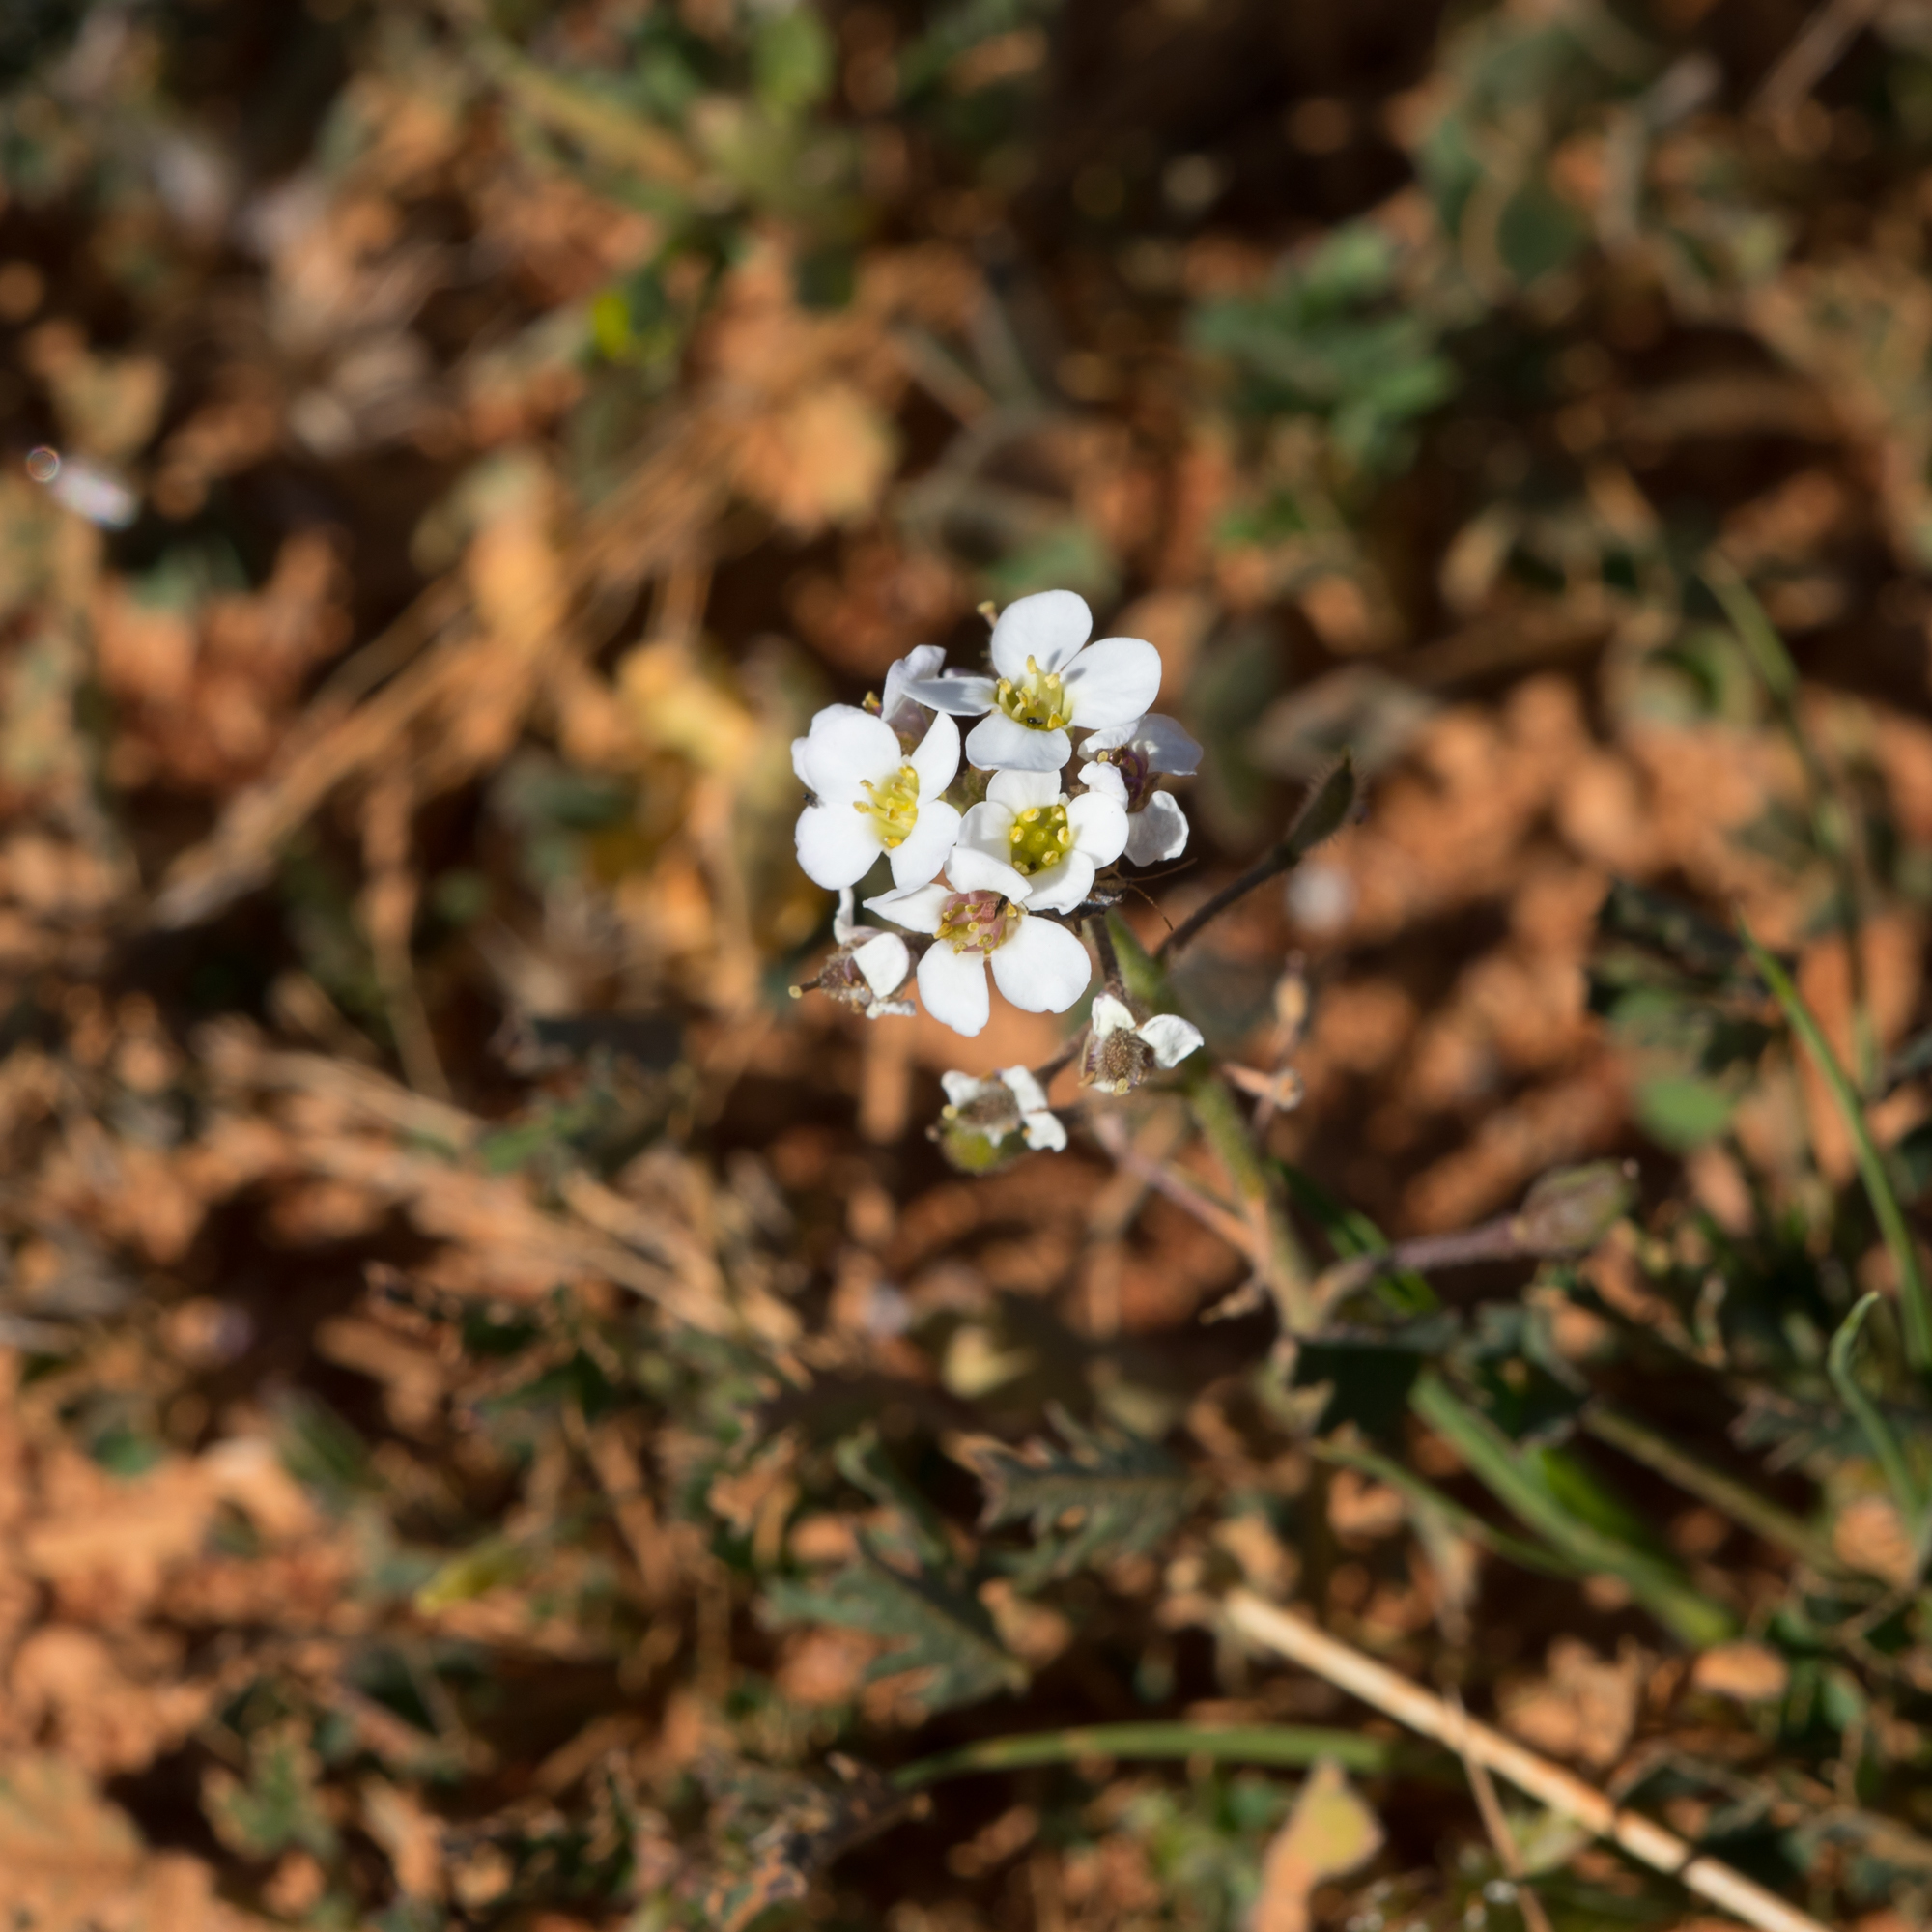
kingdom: Plantae
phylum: Tracheophyta
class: Magnoliopsida
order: Brassicales
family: Brassicaceae
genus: Harmsiodoxa
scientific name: Harmsiodoxa blennodioides
